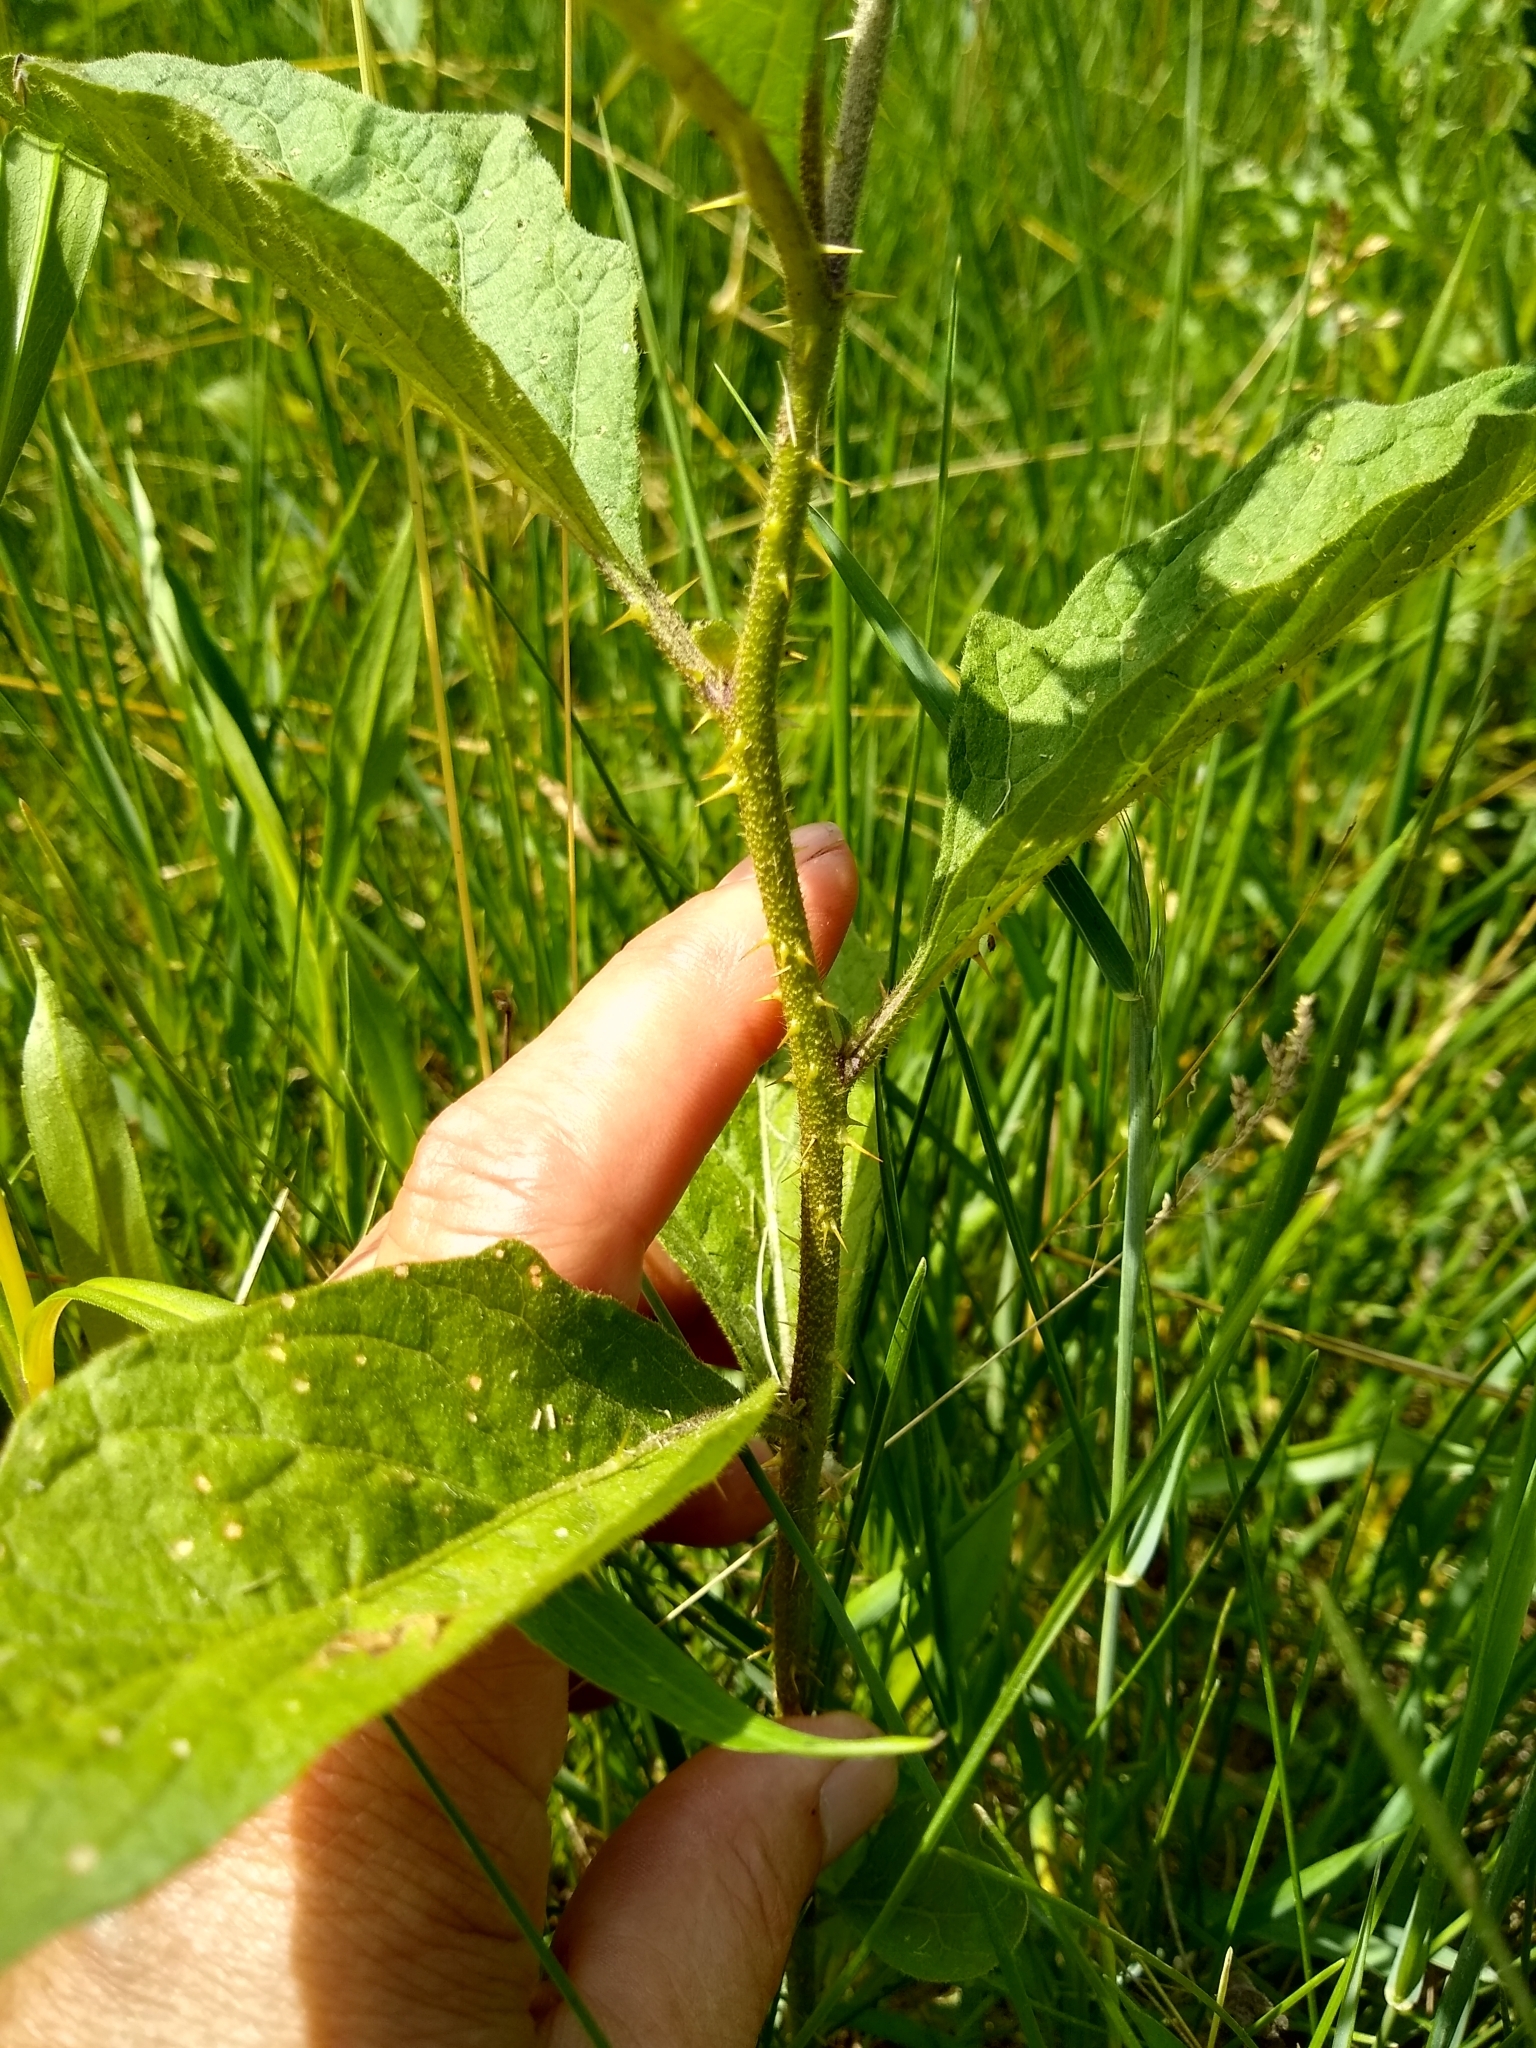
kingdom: Plantae
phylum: Tracheophyta
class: Magnoliopsida
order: Solanales
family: Solanaceae
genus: Solanum
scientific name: Solanum carolinense
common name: Horse-nettle
